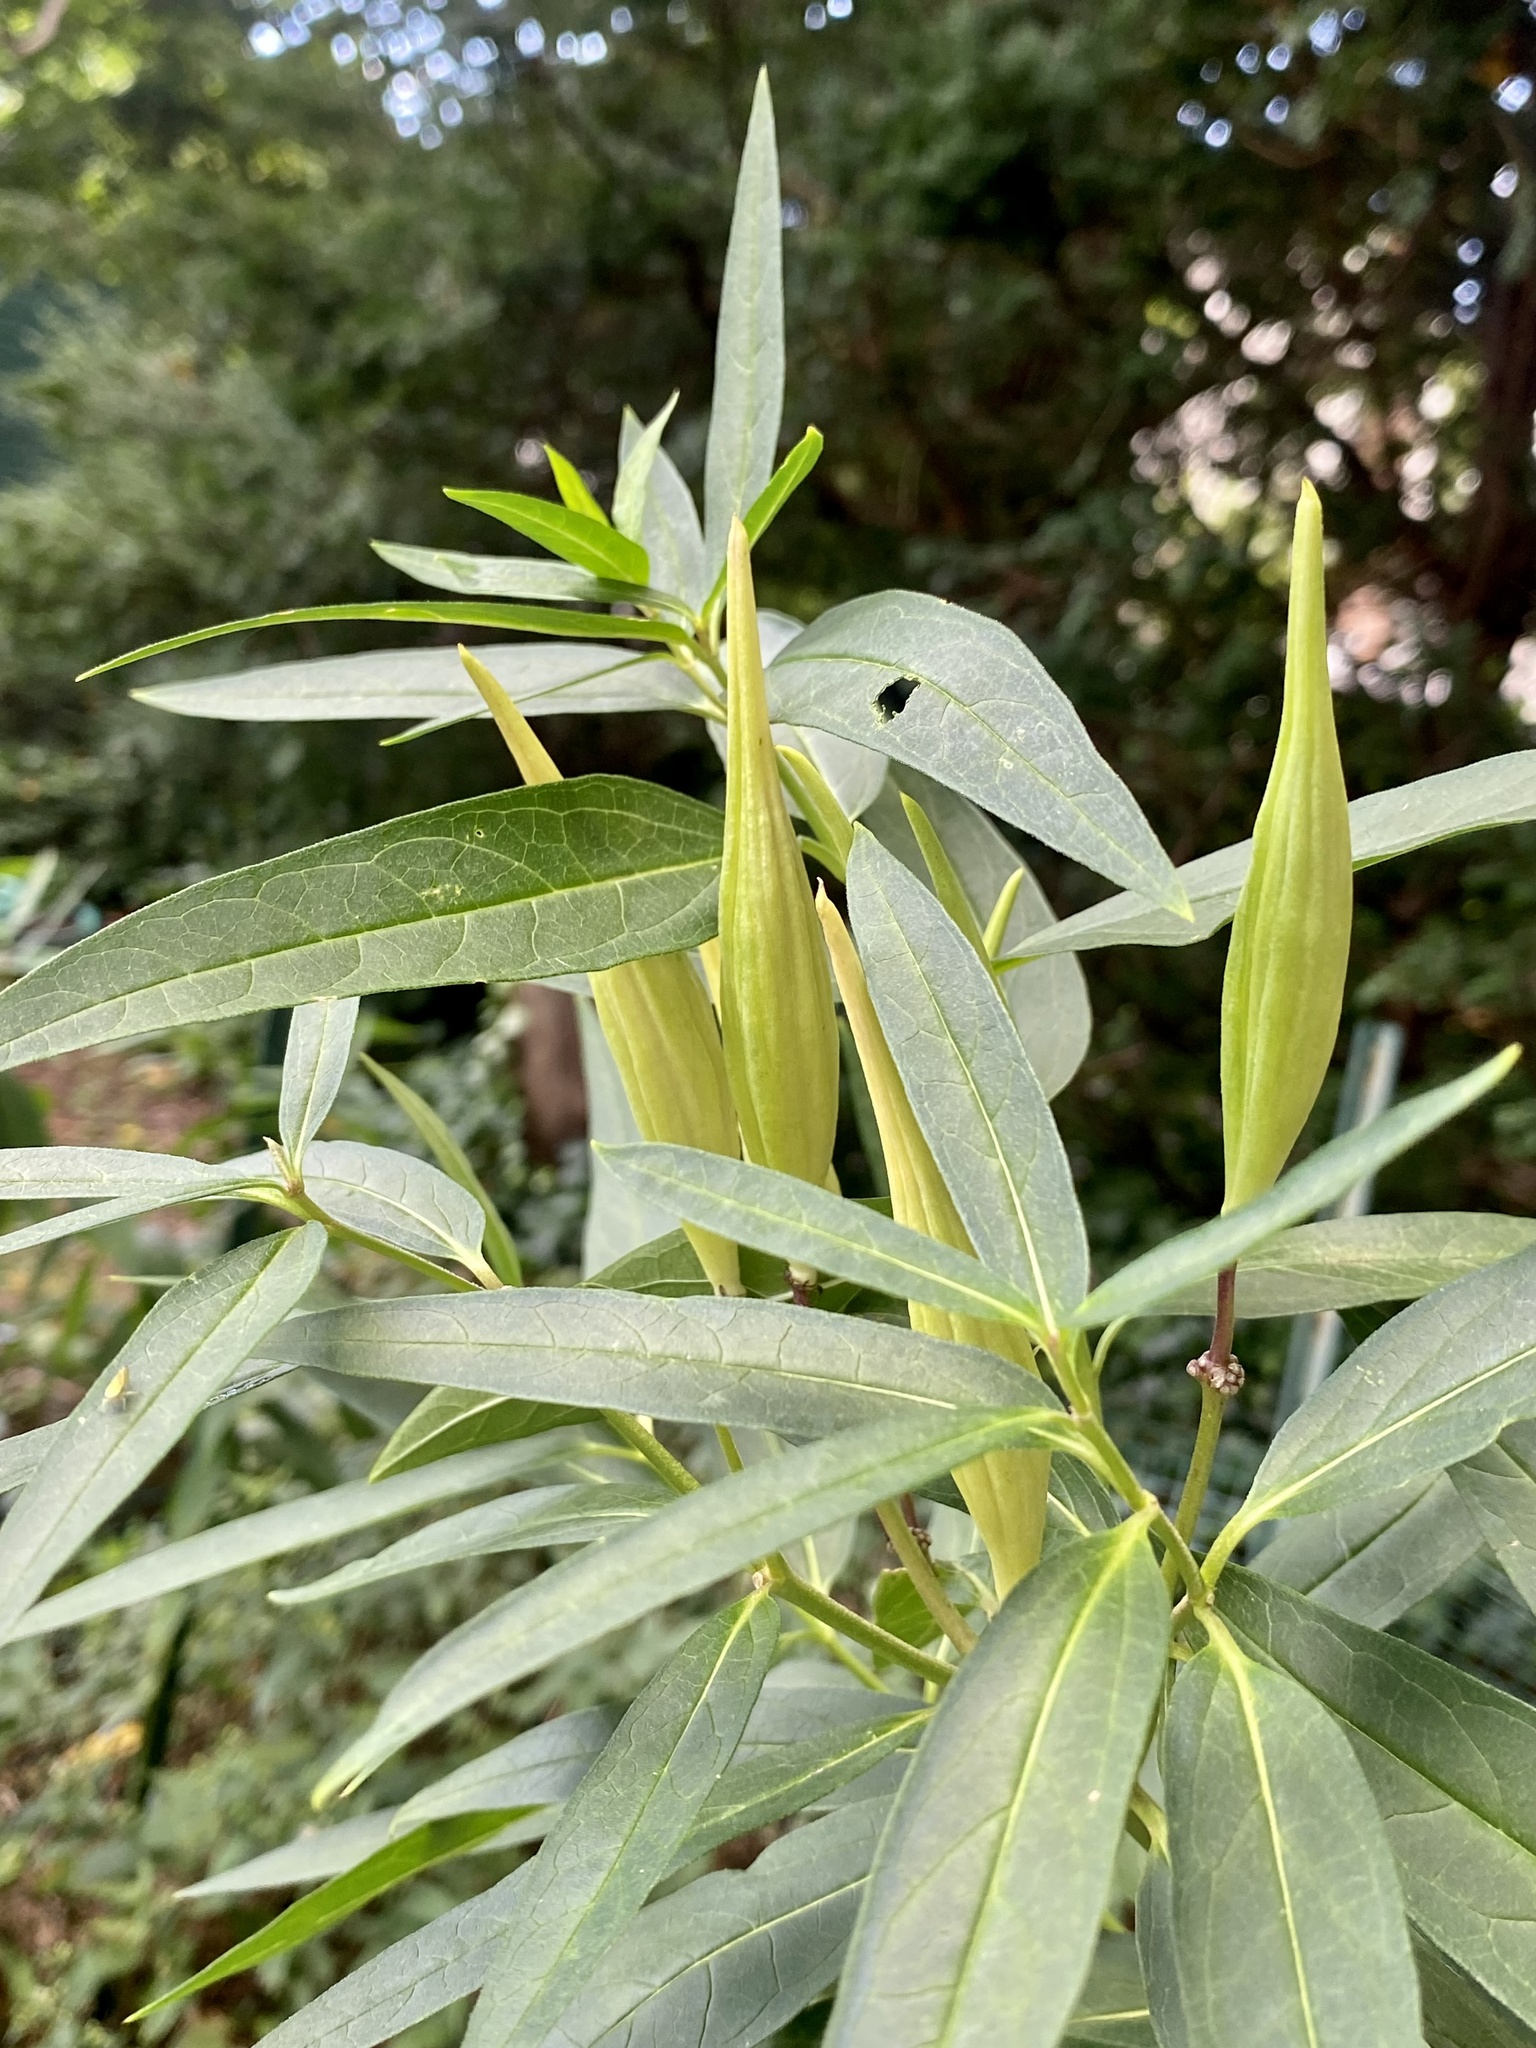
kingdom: Plantae
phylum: Tracheophyta
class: Magnoliopsida
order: Gentianales
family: Apocynaceae
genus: Asclepias
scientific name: Asclepias incarnata
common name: Swamp milkweed
